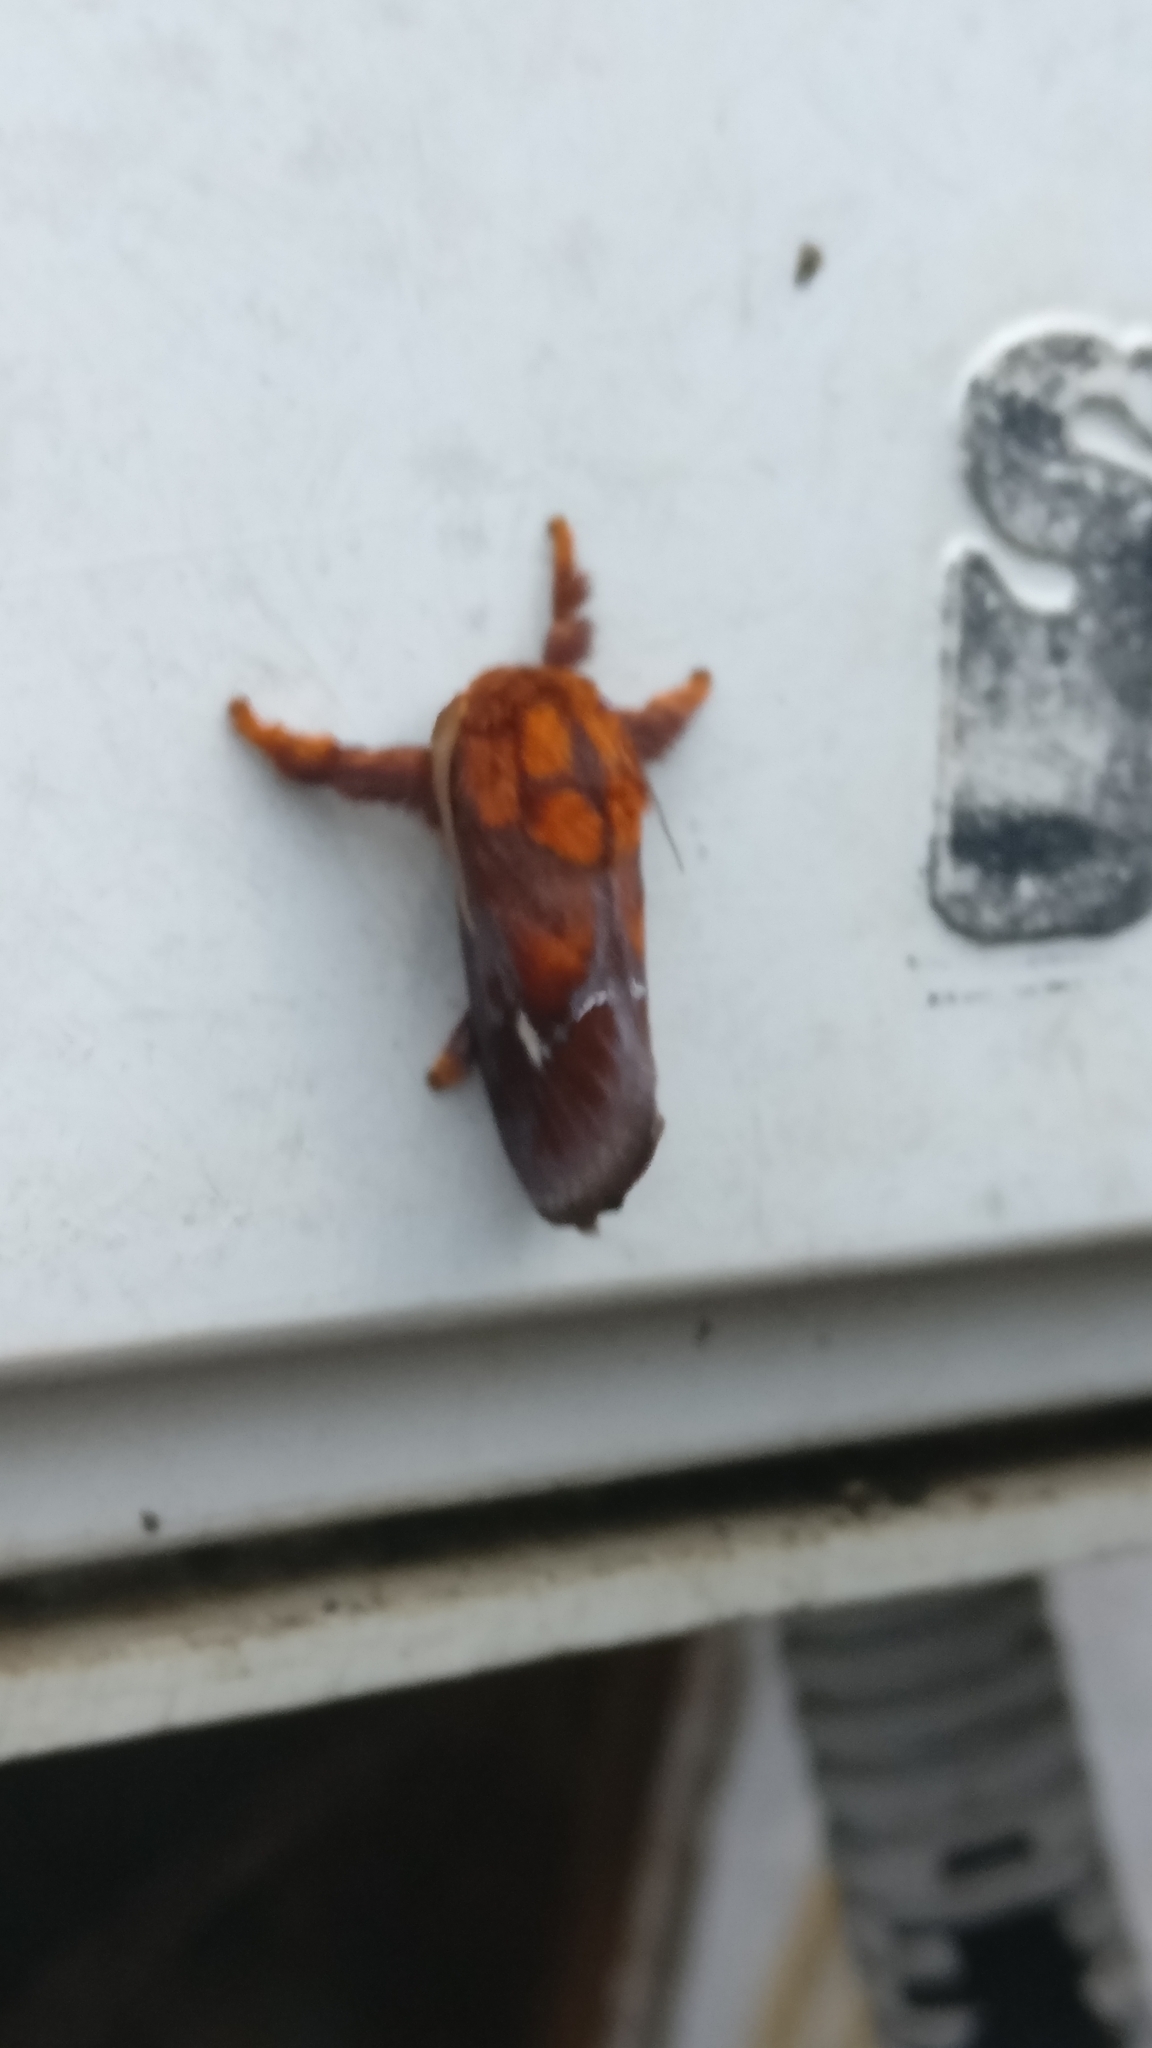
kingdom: Animalia
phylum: Arthropoda
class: Insecta
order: Lepidoptera
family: Limacodidae
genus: Miresa
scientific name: Miresa pyronota
